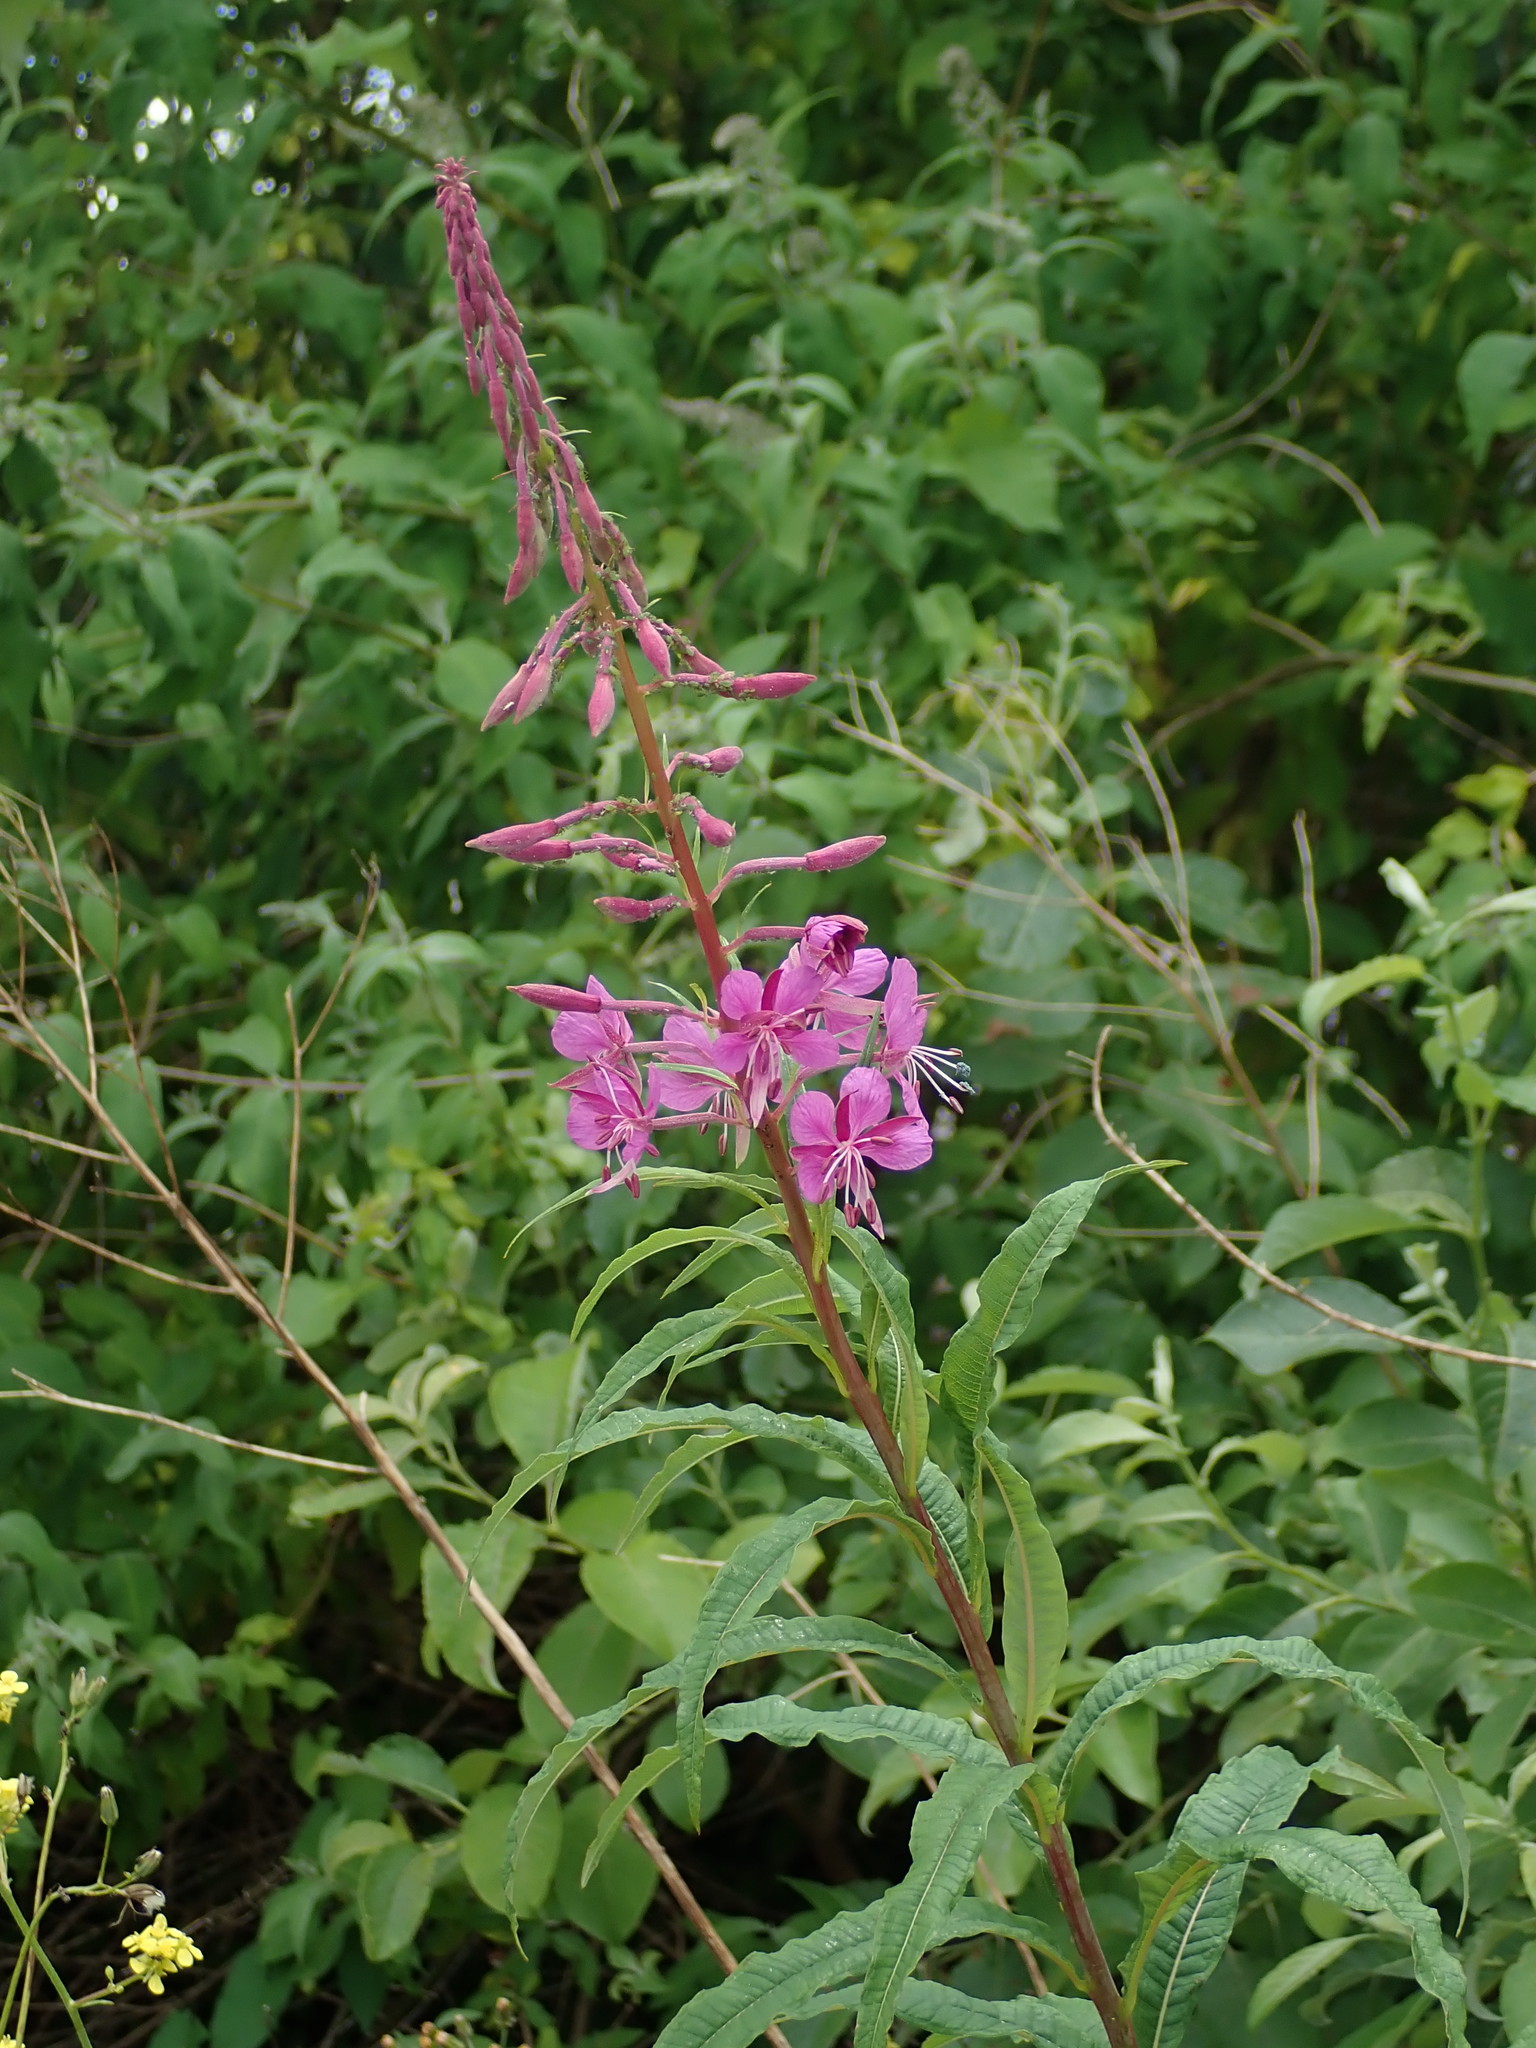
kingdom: Plantae
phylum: Tracheophyta
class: Magnoliopsida
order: Myrtales
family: Onagraceae
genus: Chamaenerion
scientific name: Chamaenerion angustifolium
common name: Fireweed
